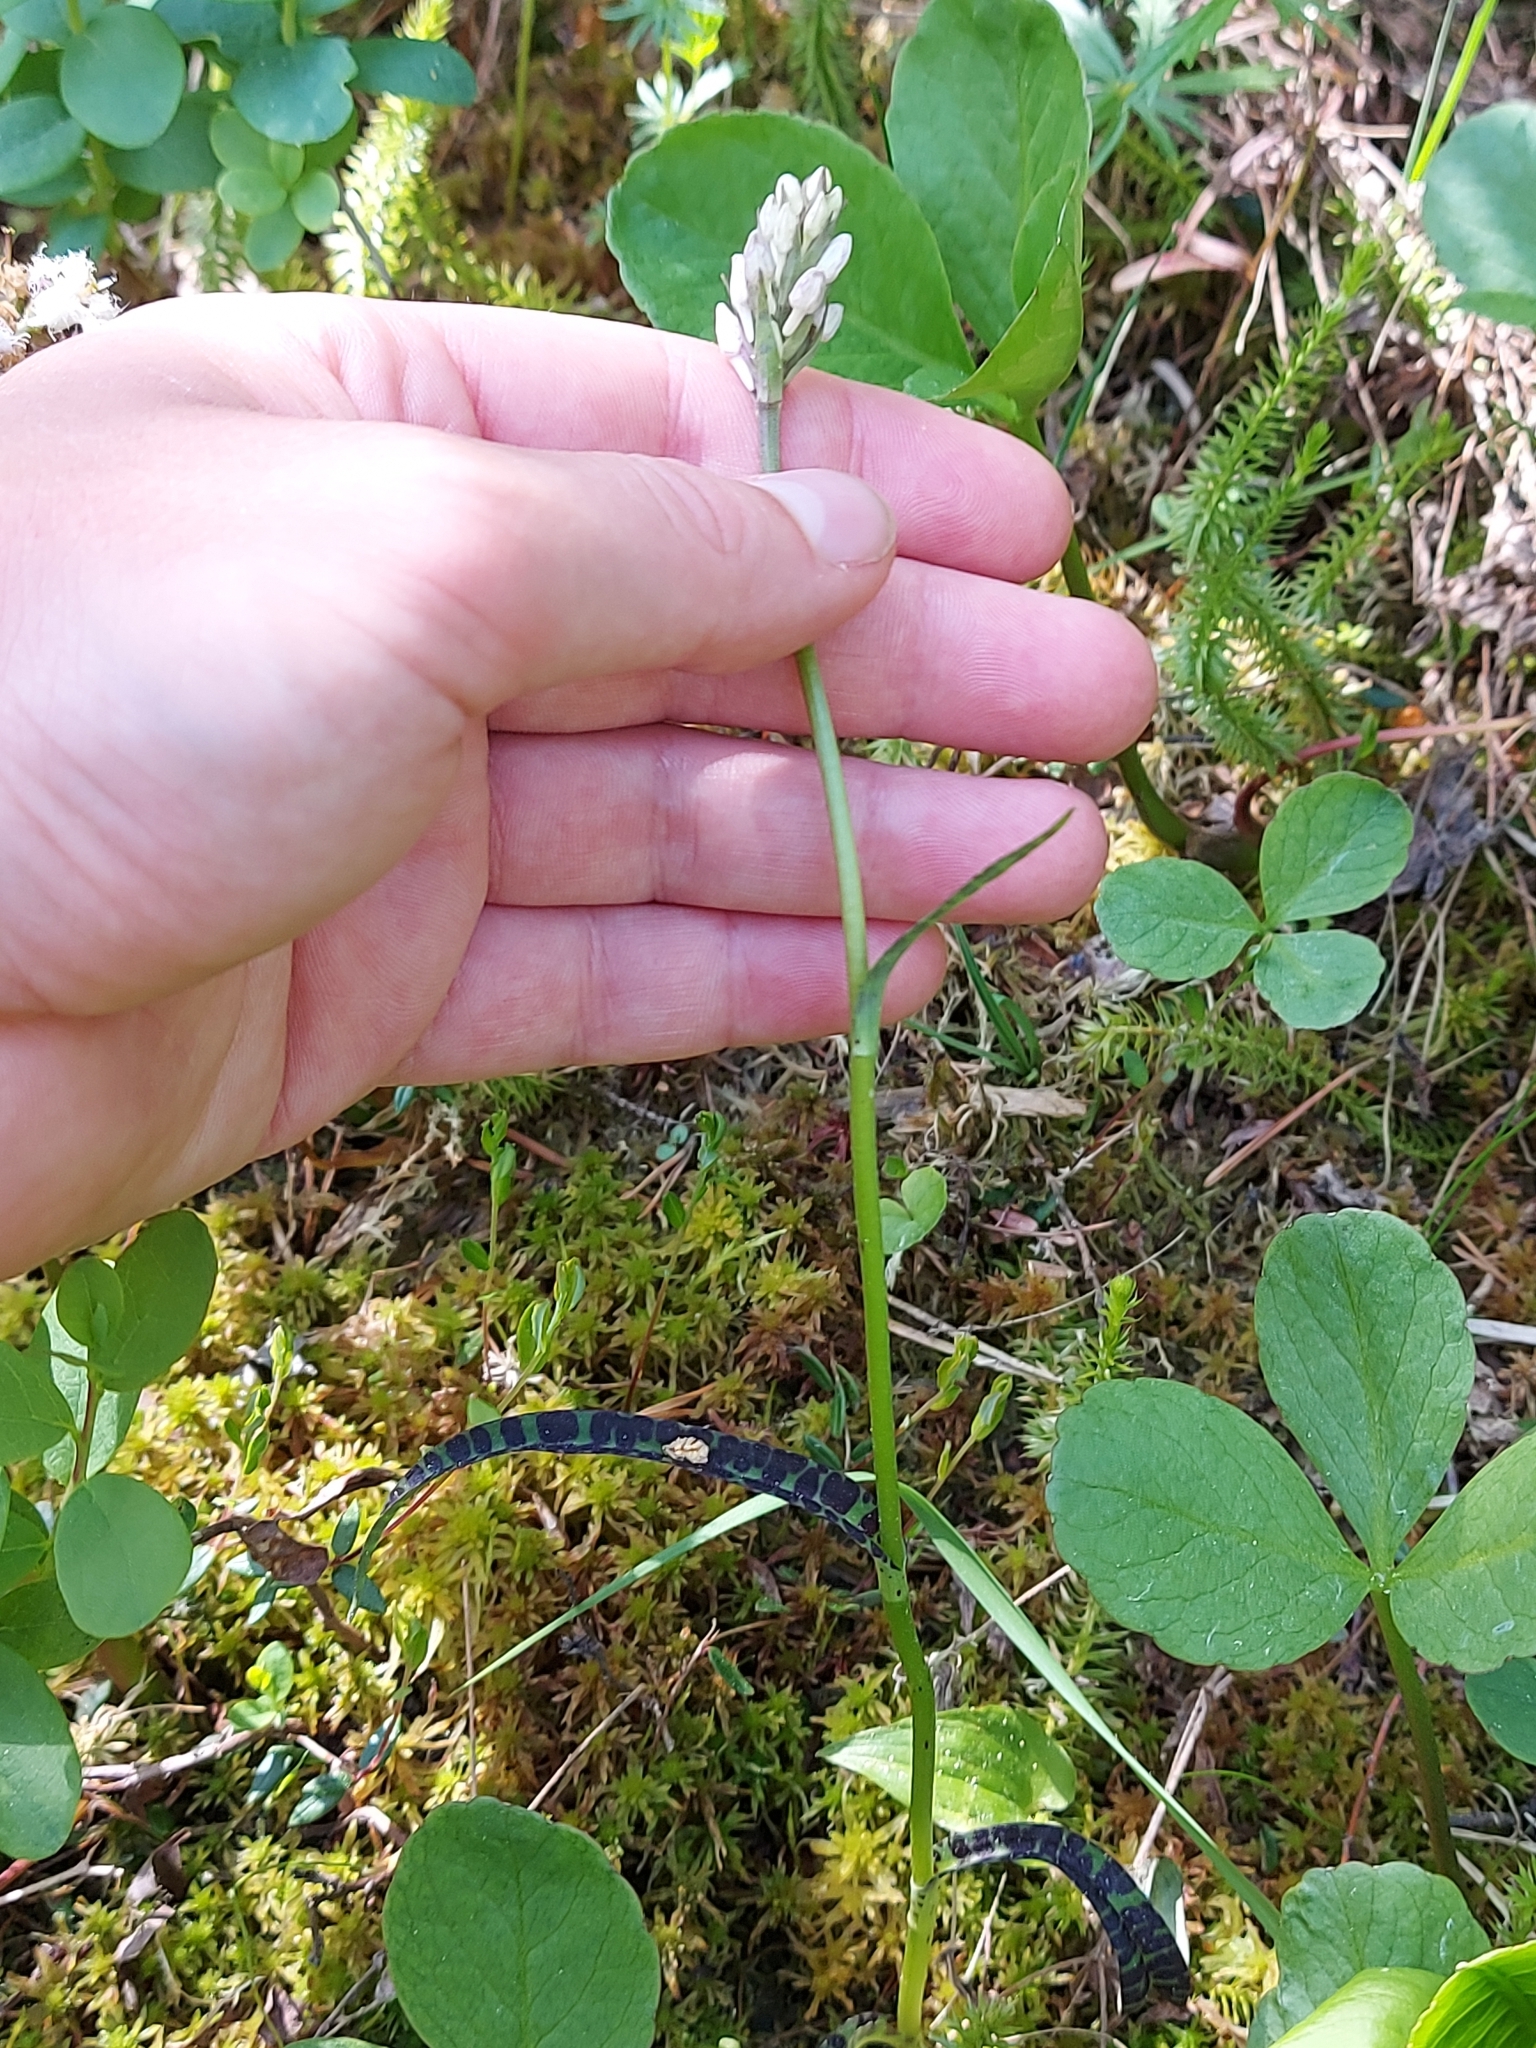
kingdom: Plantae
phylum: Tracheophyta
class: Liliopsida
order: Asparagales
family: Orchidaceae
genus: Dactylorhiza
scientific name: Dactylorhiza maculata
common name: Heath spotted-orchid
